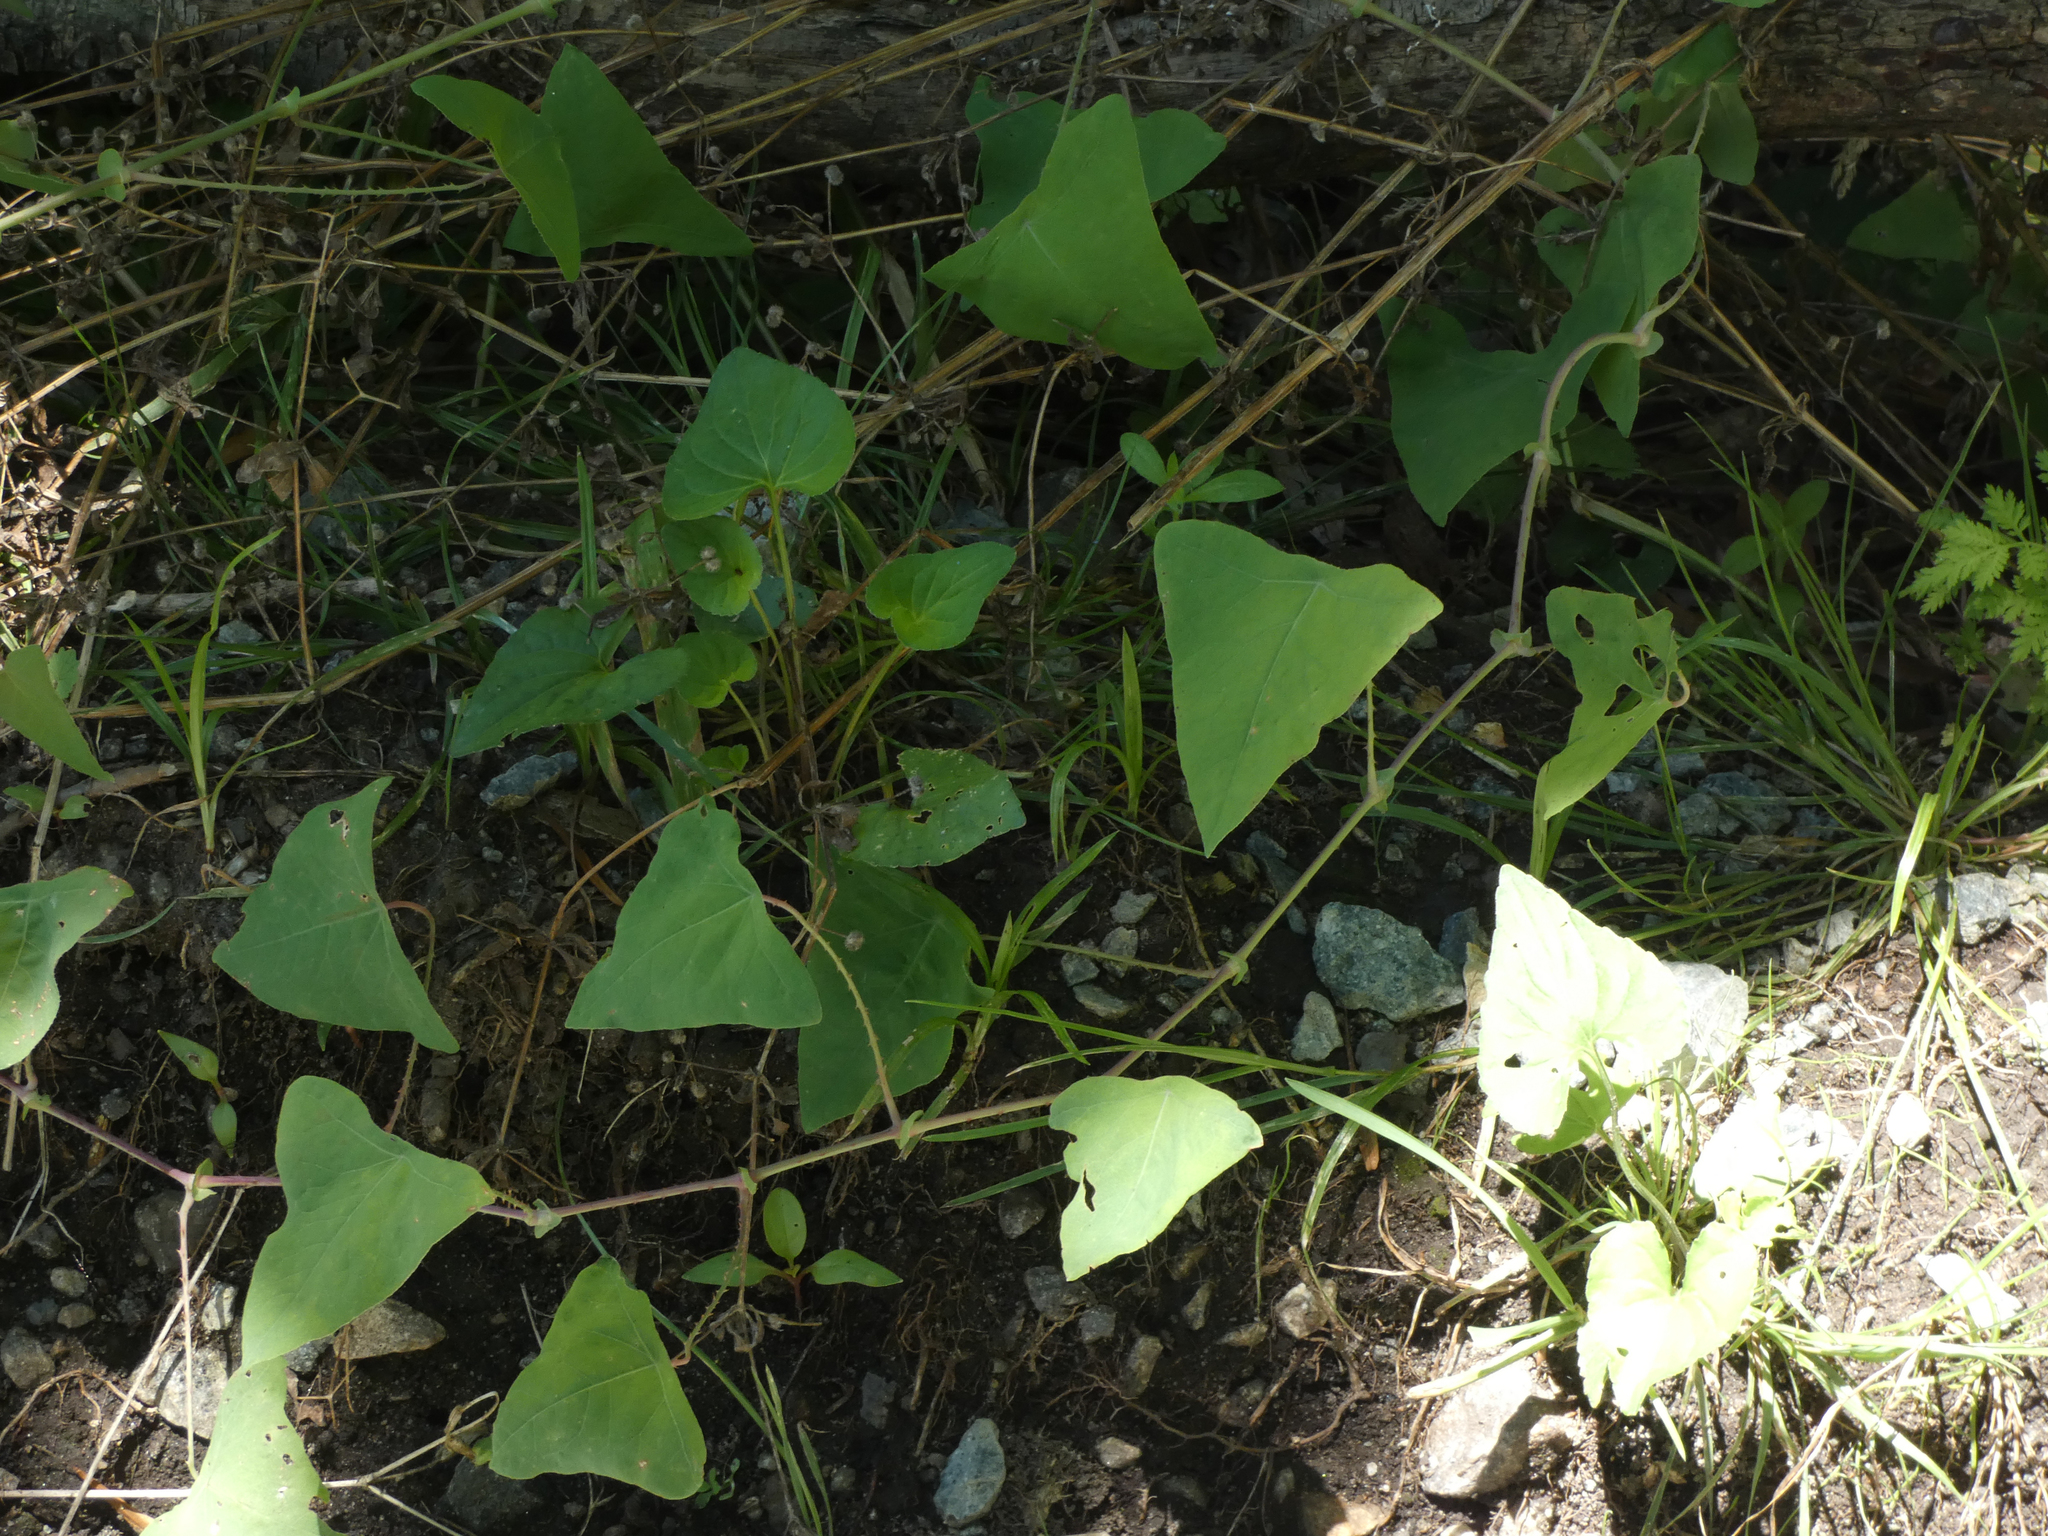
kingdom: Plantae
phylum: Tracheophyta
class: Magnoliopsida
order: Caryophyllales
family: Polygonaceae
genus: Persicaria
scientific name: Persicaria perfoliata
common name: Asiatic tearthumb
